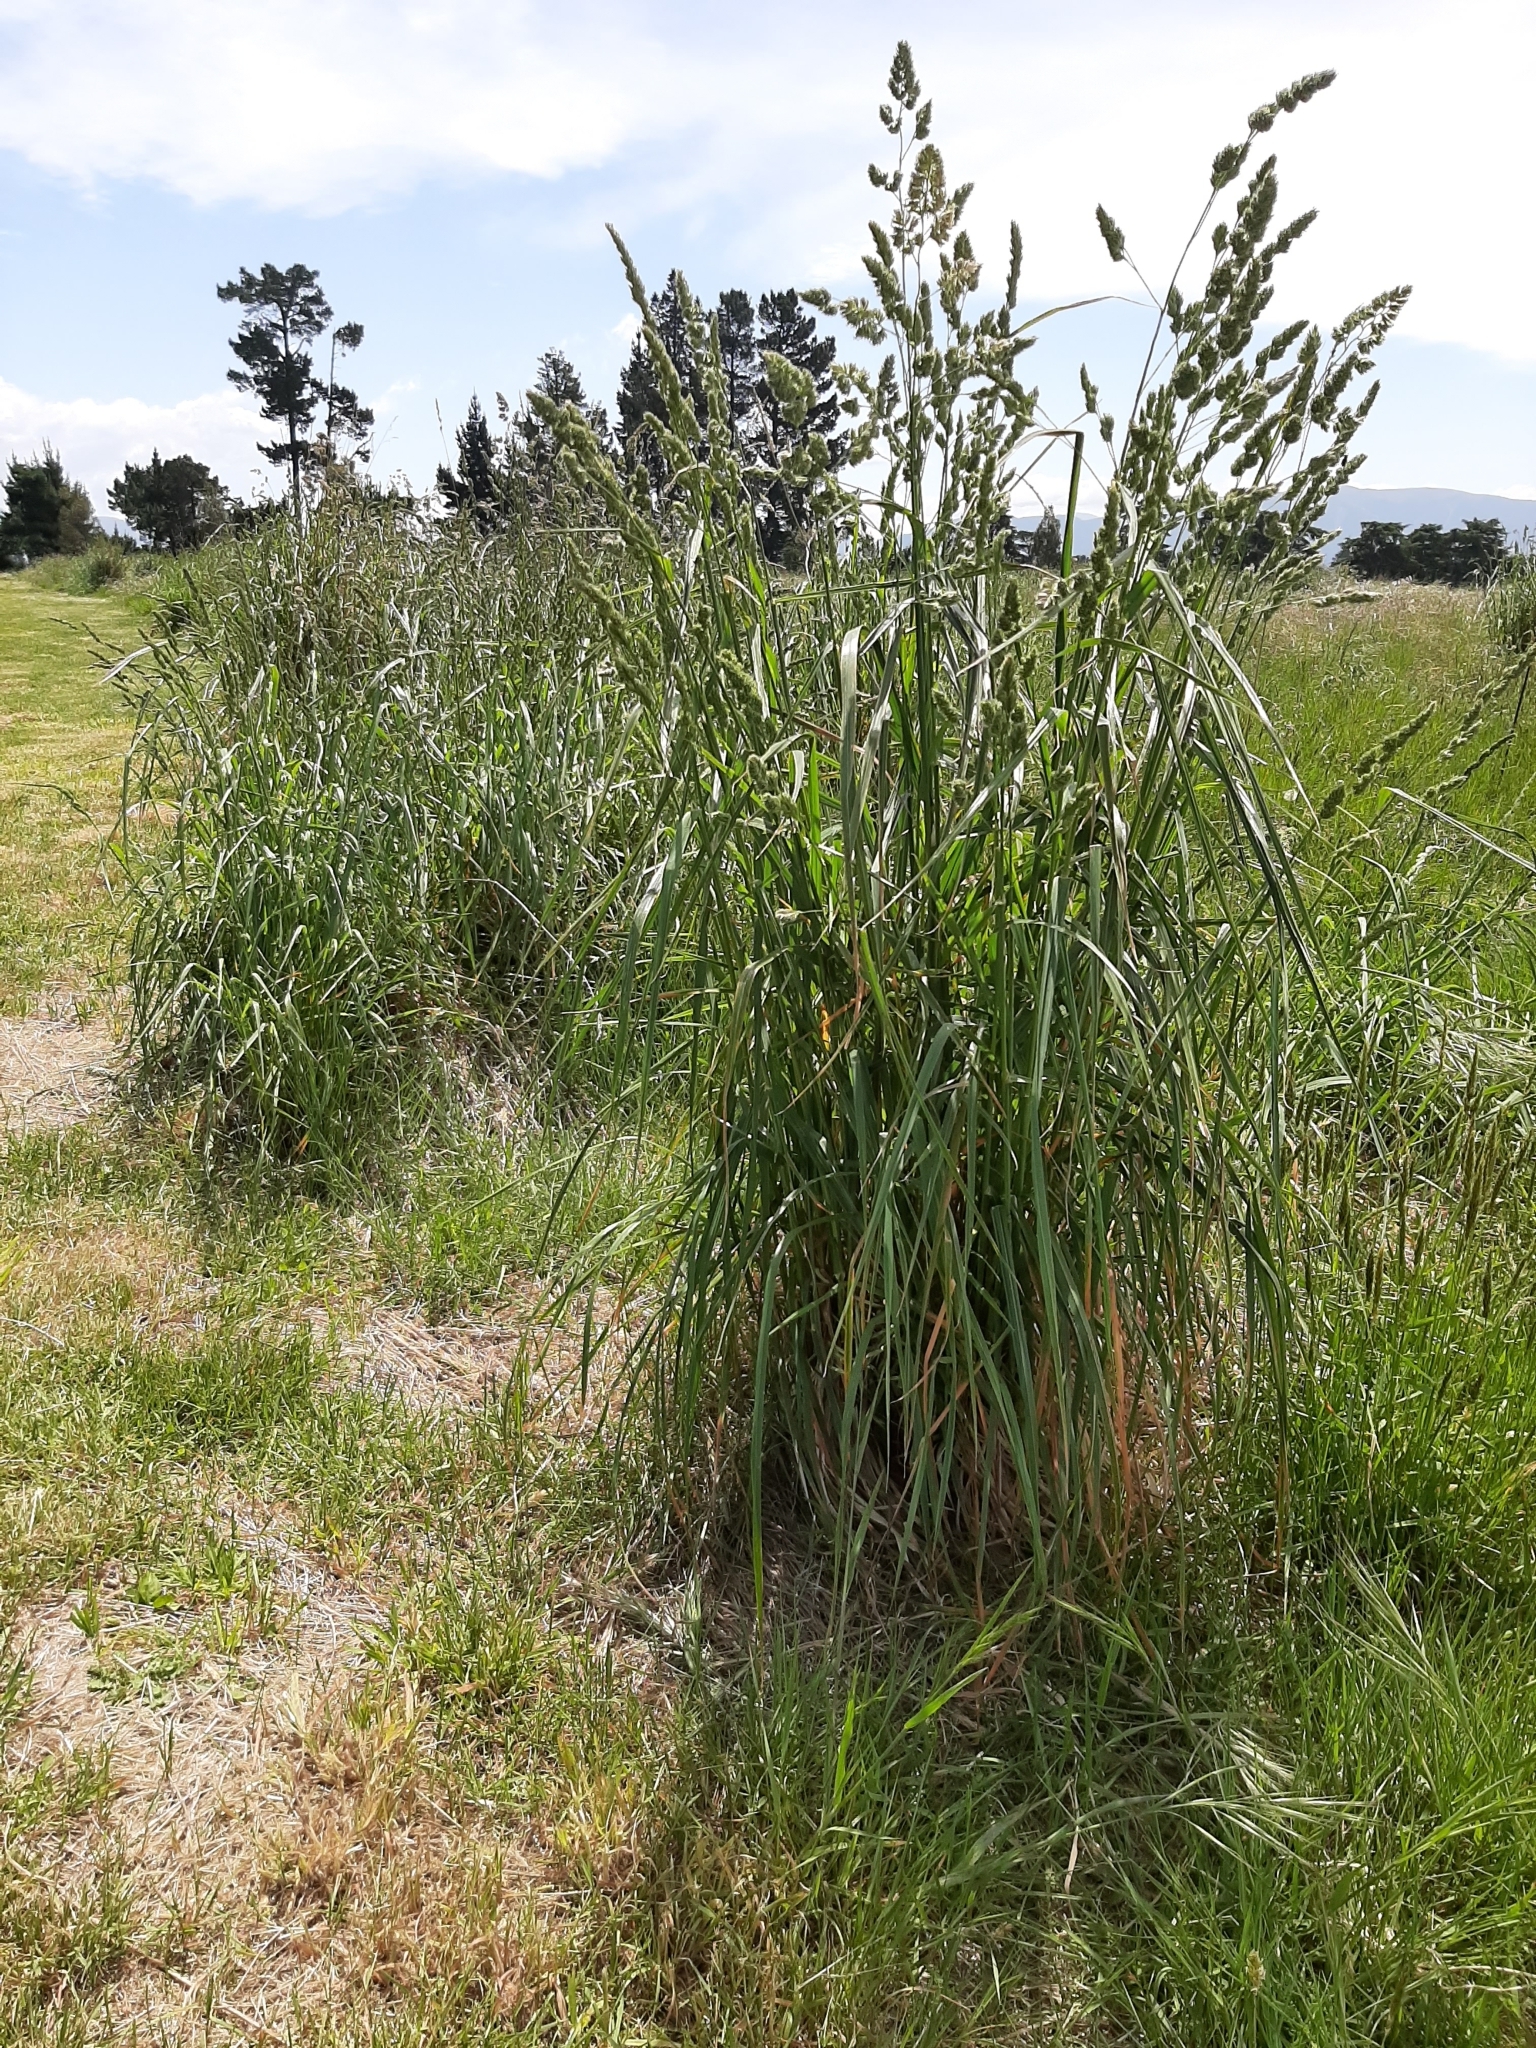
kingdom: Plantae
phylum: Tracheophyta
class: Liliopsida
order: Poales
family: Poaceae
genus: Dactylis
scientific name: Dactylis glomerata
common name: Orchardgrass
